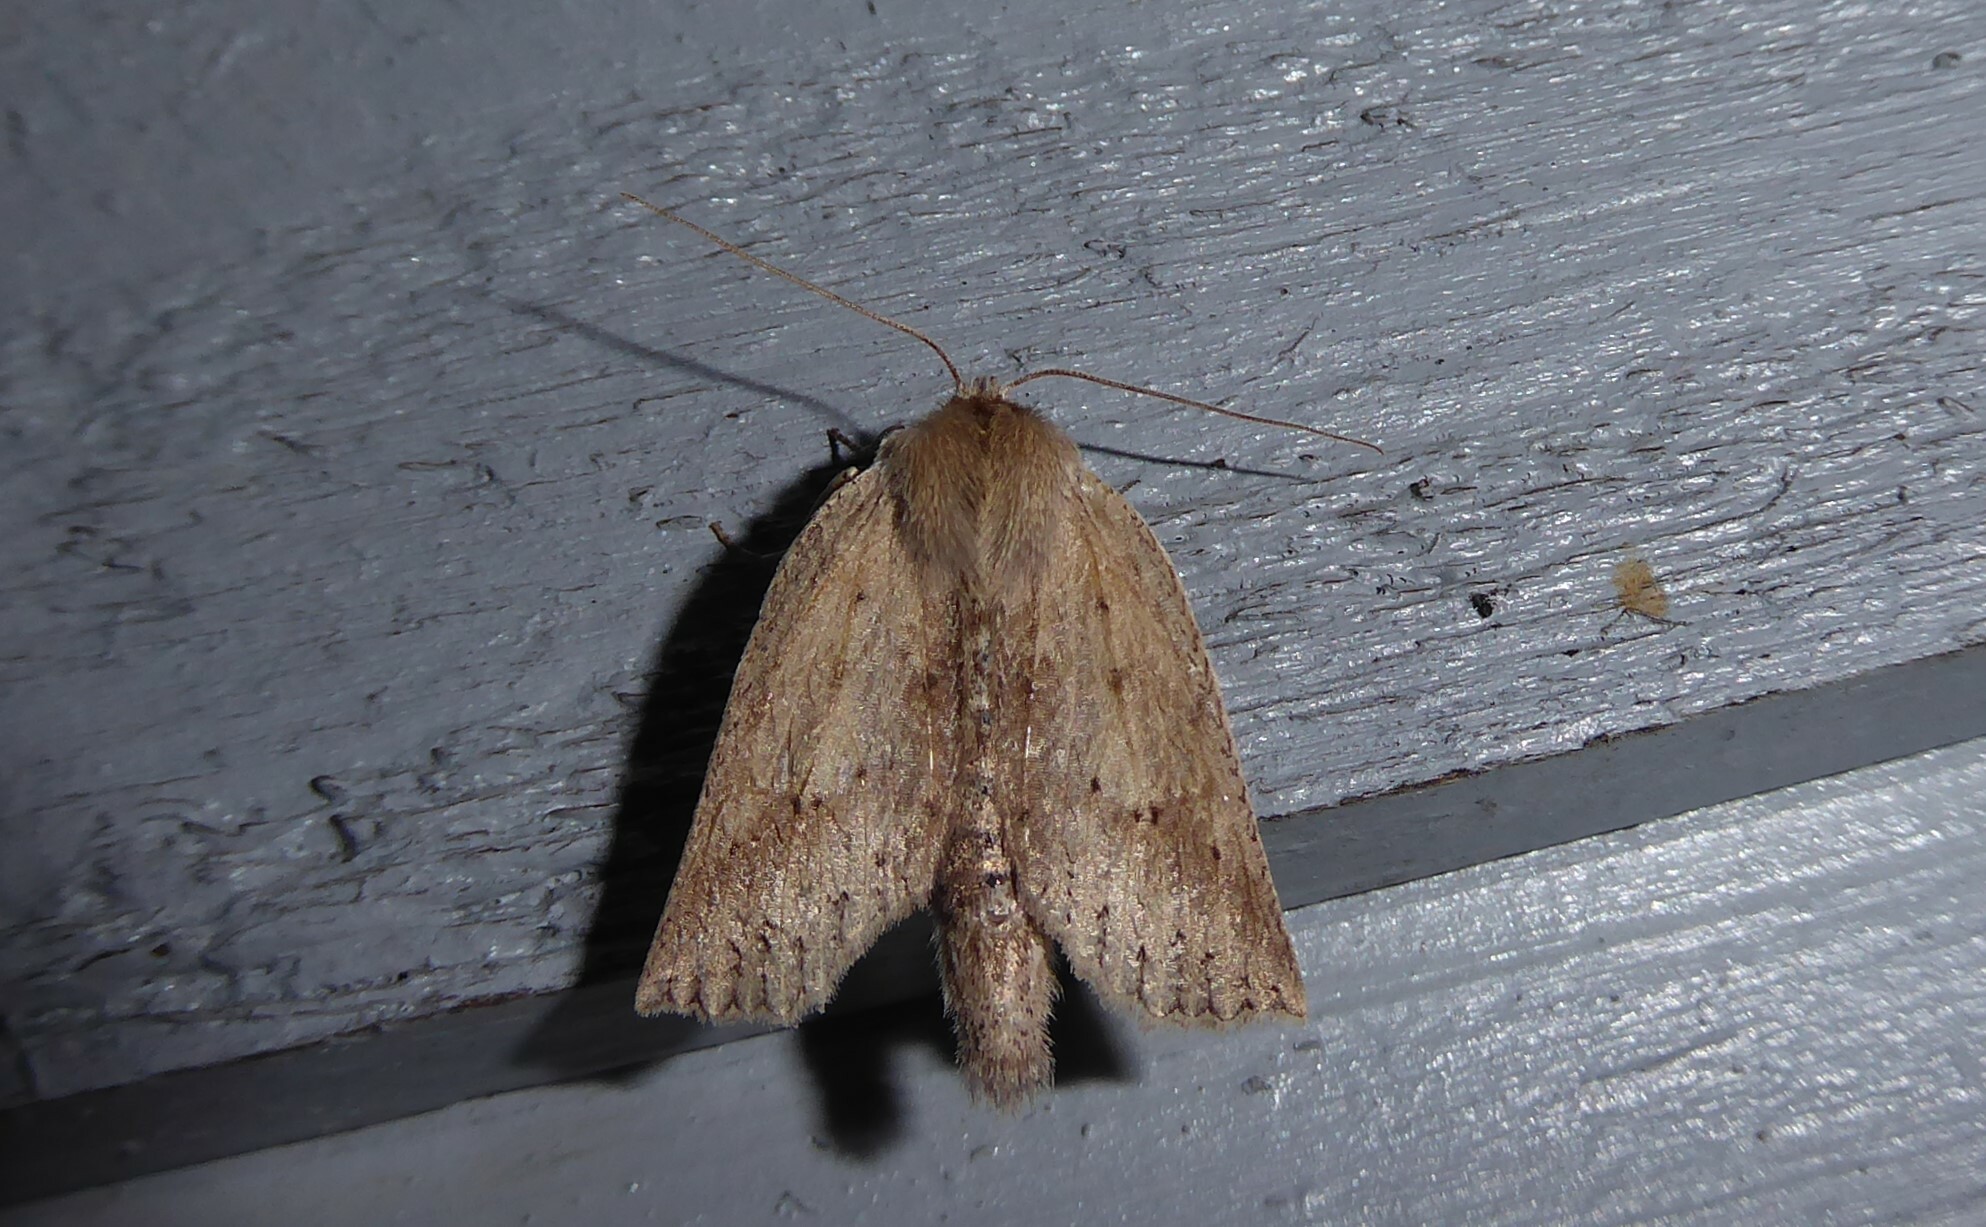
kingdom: Animalia
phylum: Arthropoda
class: Insecta
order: Lepidoptera
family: Geometridae
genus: Declana
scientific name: Declana leptomera
